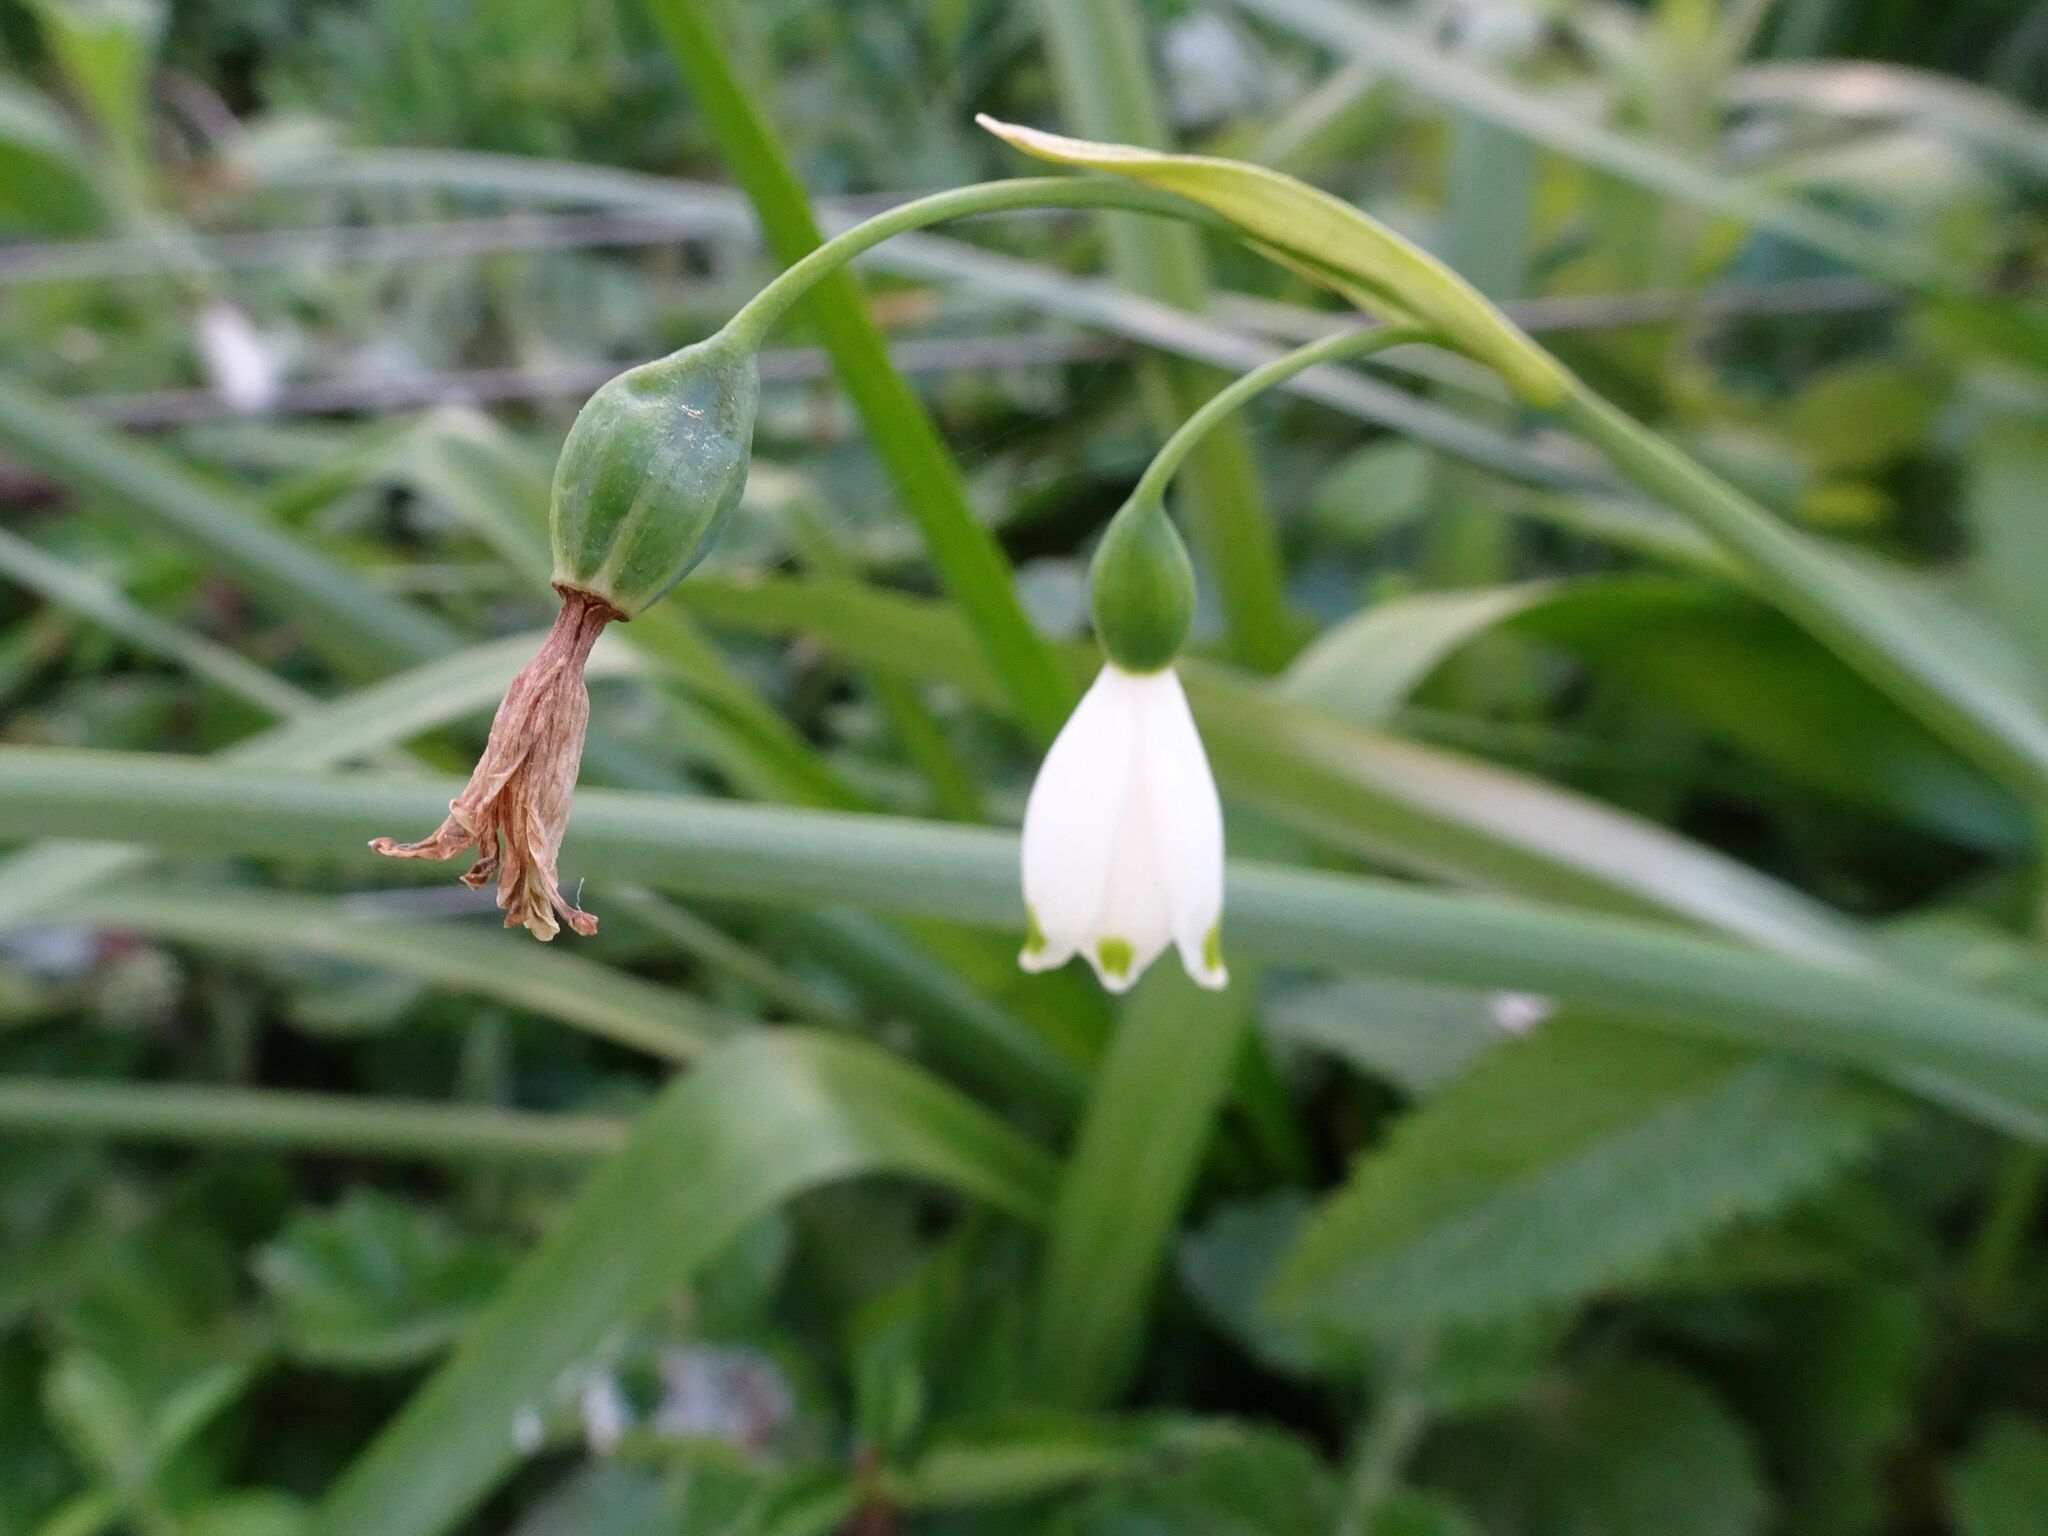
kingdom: Plantae
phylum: Tracheophyta
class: Liliopsida
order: Asparagales
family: Amaryllidaceae
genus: Leucojum
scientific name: Leucojum aestivum
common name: Summer snowflake
